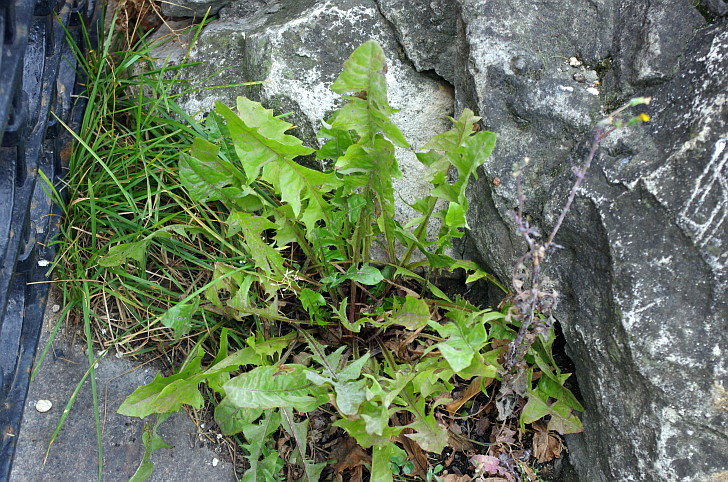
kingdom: Plantae
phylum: Tracheophyta
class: Magnoliopsida
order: Asterales
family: Asteraceae
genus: Taraxacum
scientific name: Taraxacum officinale
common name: Common dandelion
